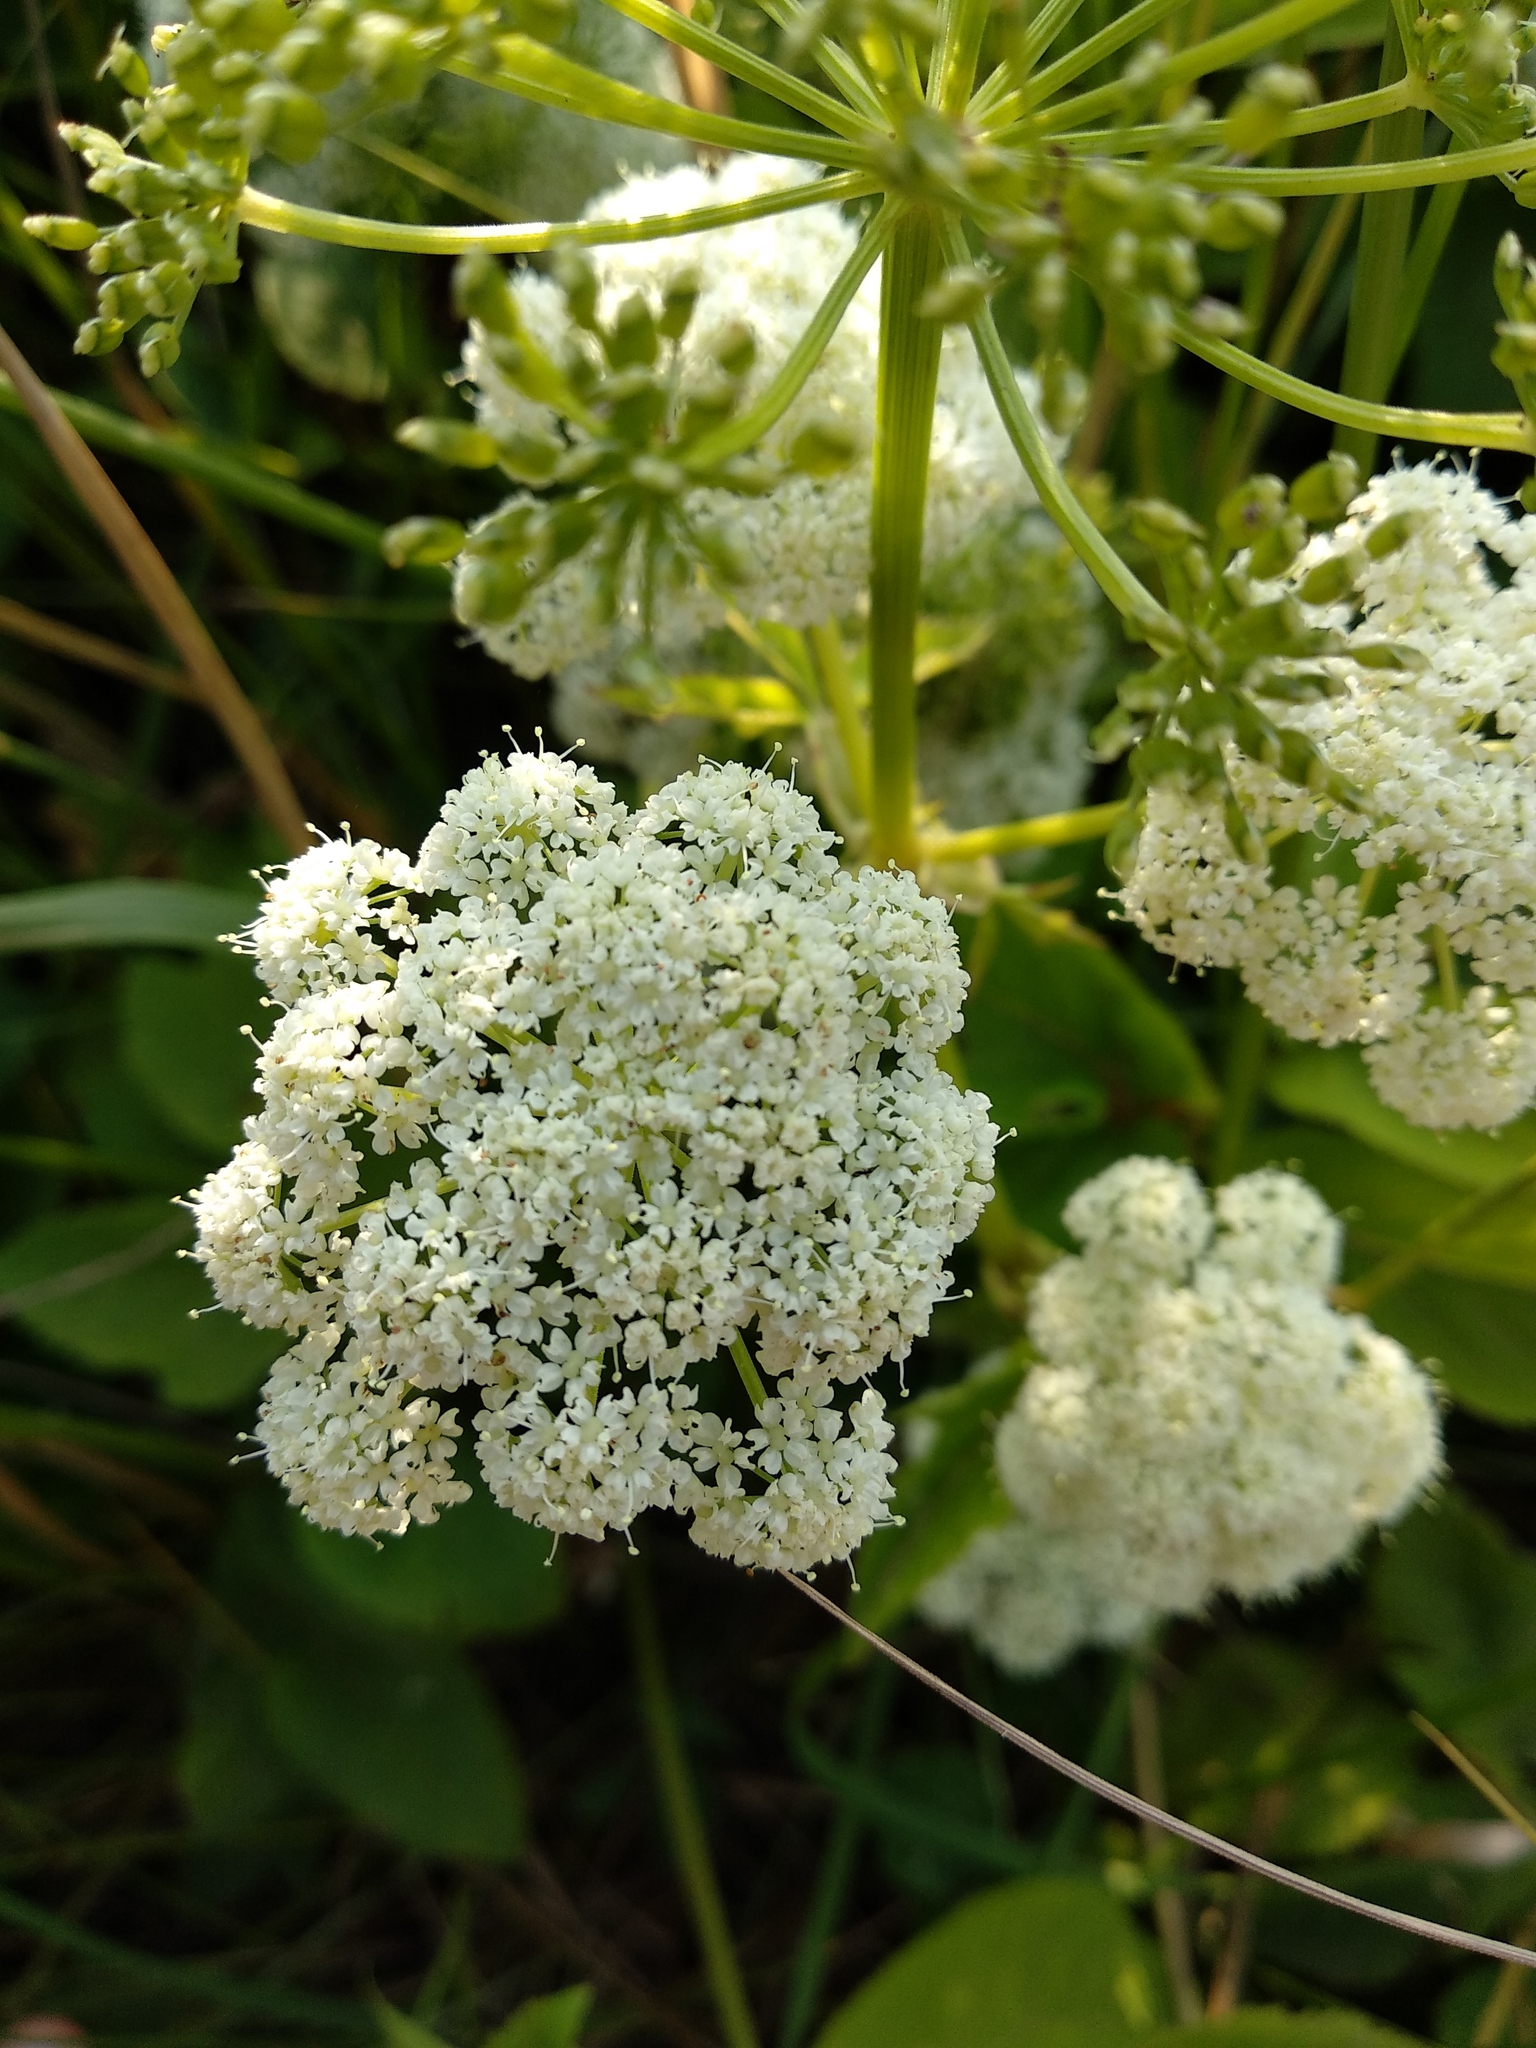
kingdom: Plantae
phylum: Tracheophyta
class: Magnoliopsida
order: Apiales
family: Apiaceae
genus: Angelica
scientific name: Angelica sylvestris
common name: Wild angelica
